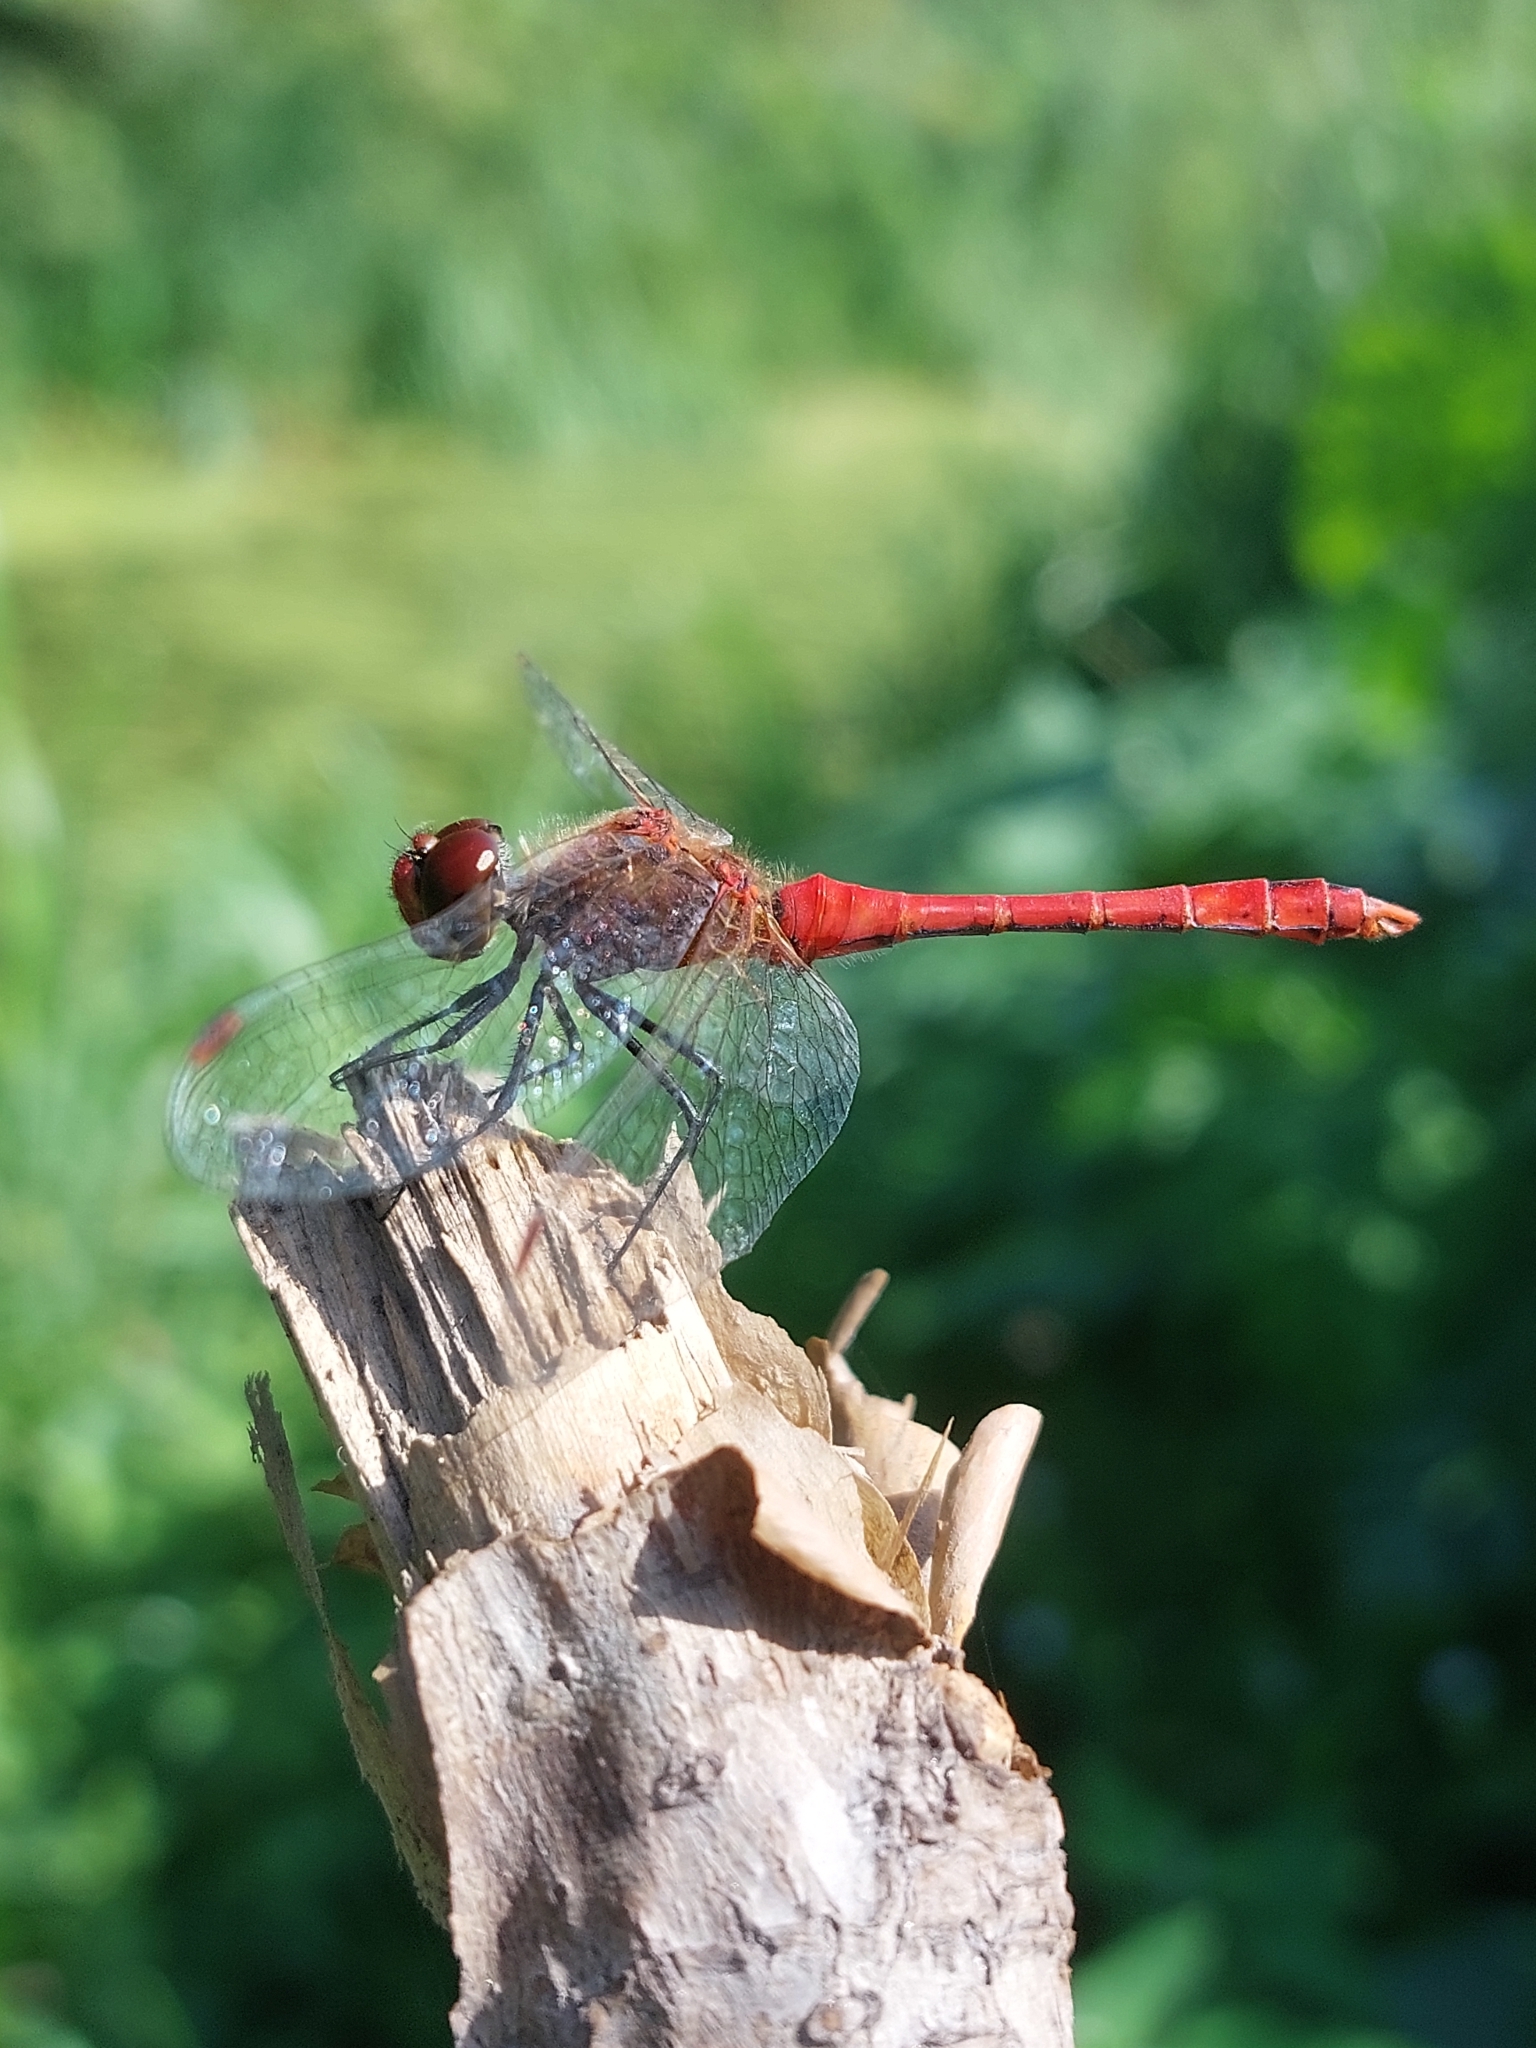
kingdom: Animalia
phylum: Arthropoda
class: Insecta
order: Odonata
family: Libellulidae
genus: Sympetrum
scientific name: Sympetrum sanguineum
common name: Ruddy darter
